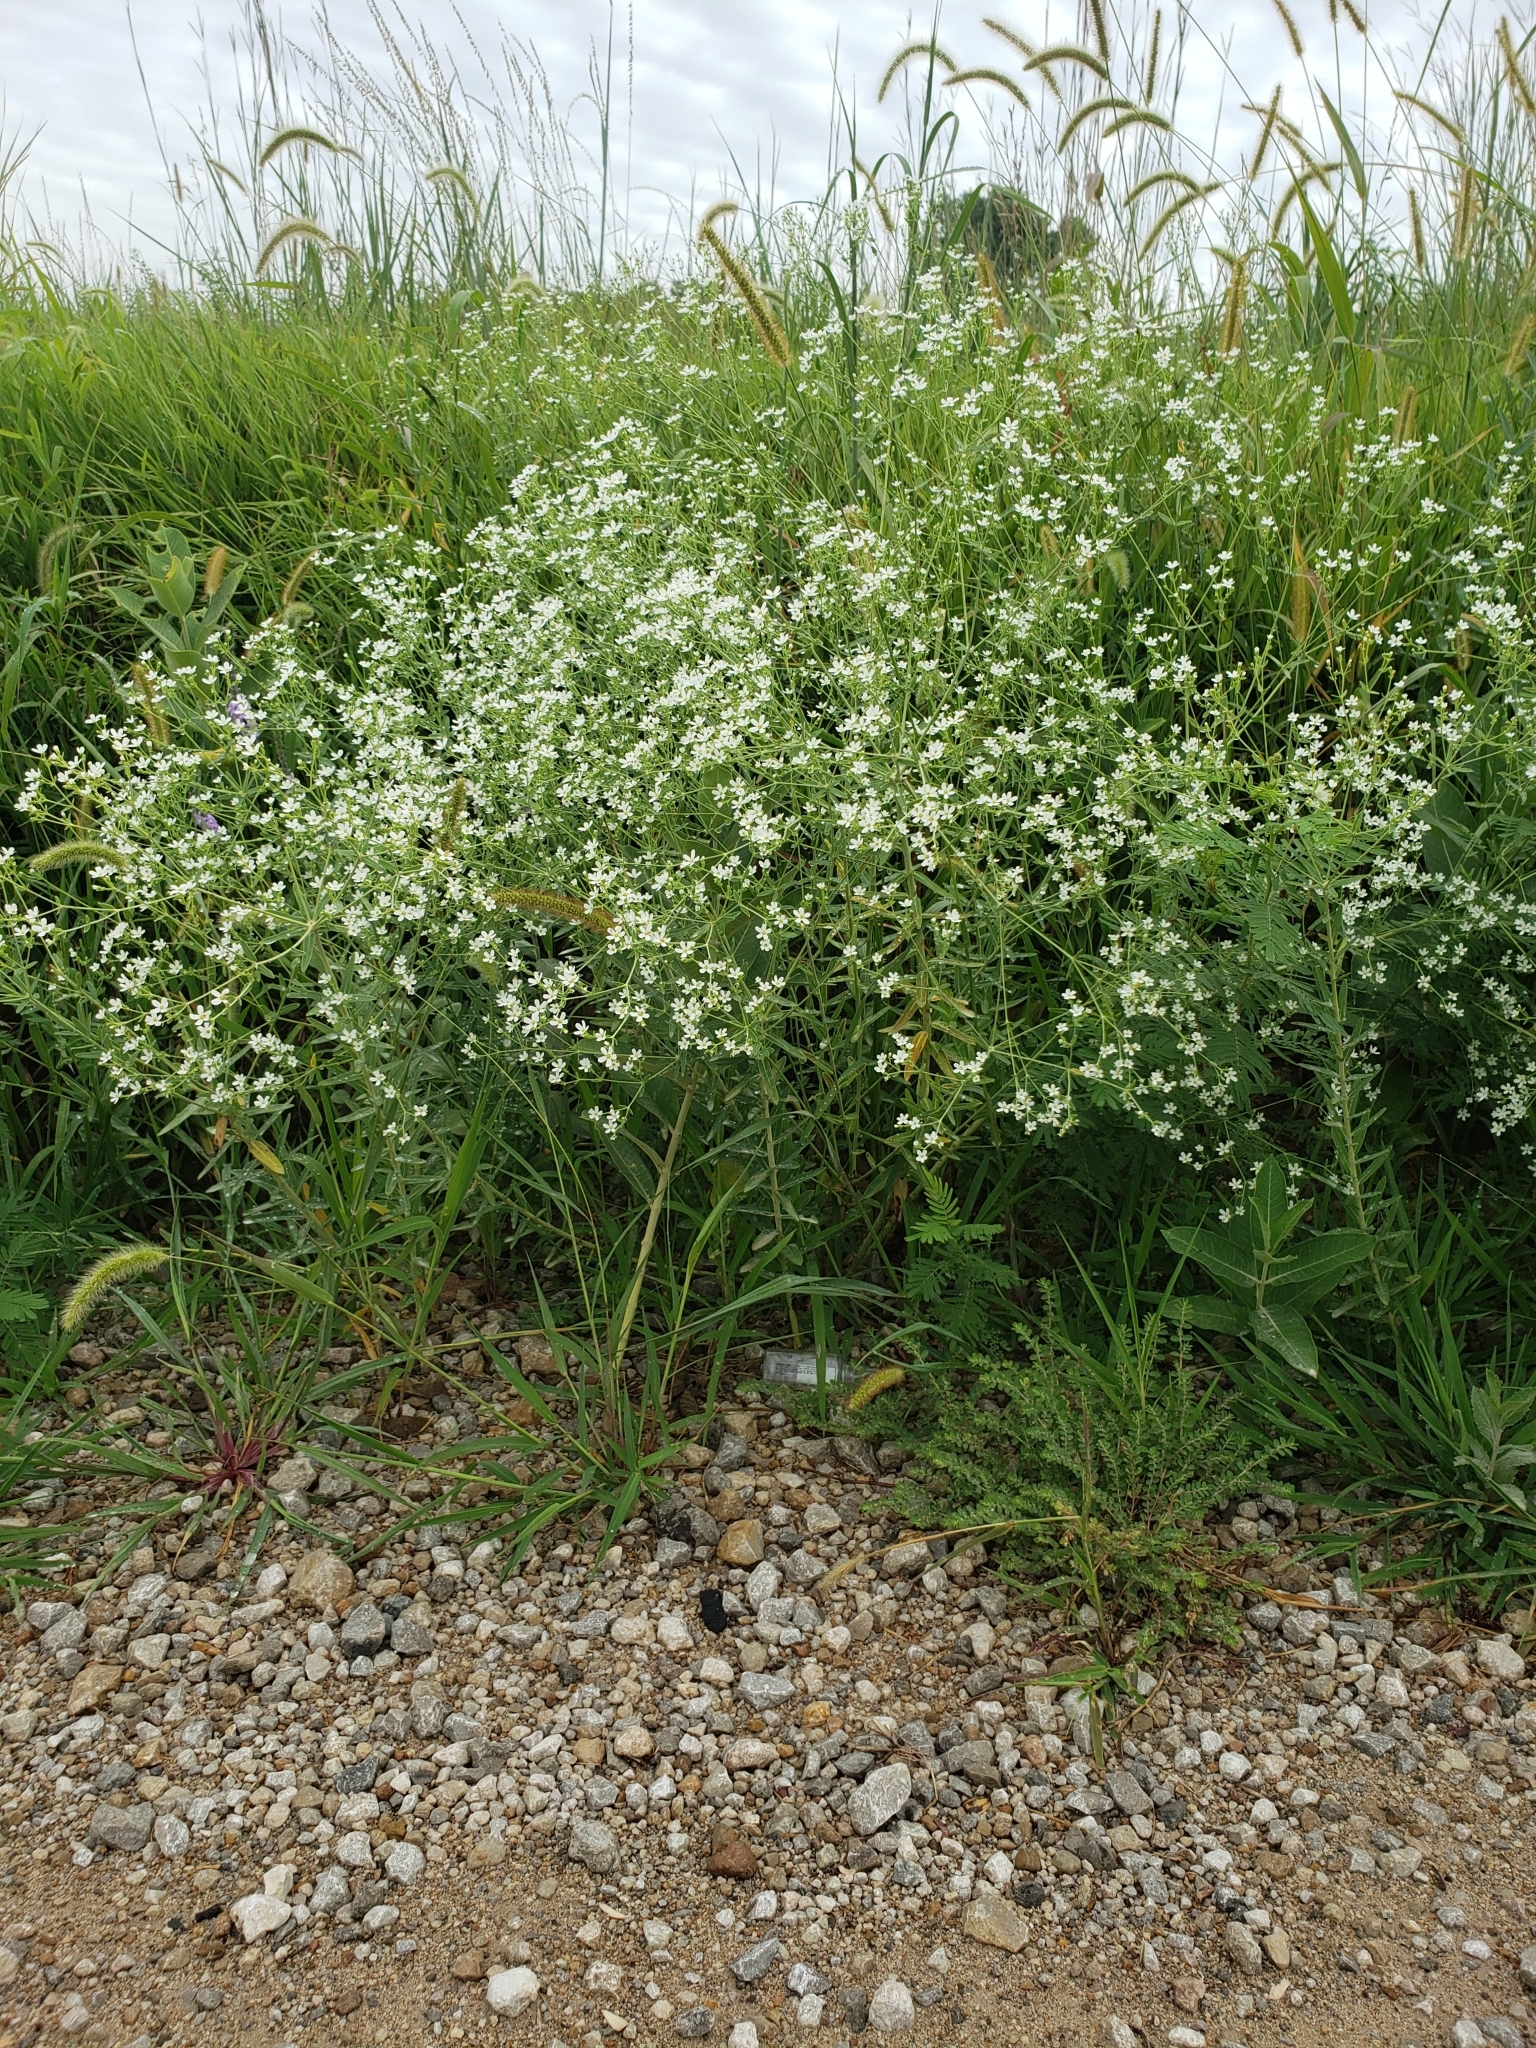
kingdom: Plantae
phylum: Tracheophyta
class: Magnoliopsida
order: Malpighiales
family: Euphorbiaceae
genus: Euphorbia
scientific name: Euphorbia corollata
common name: Flowering spurge
